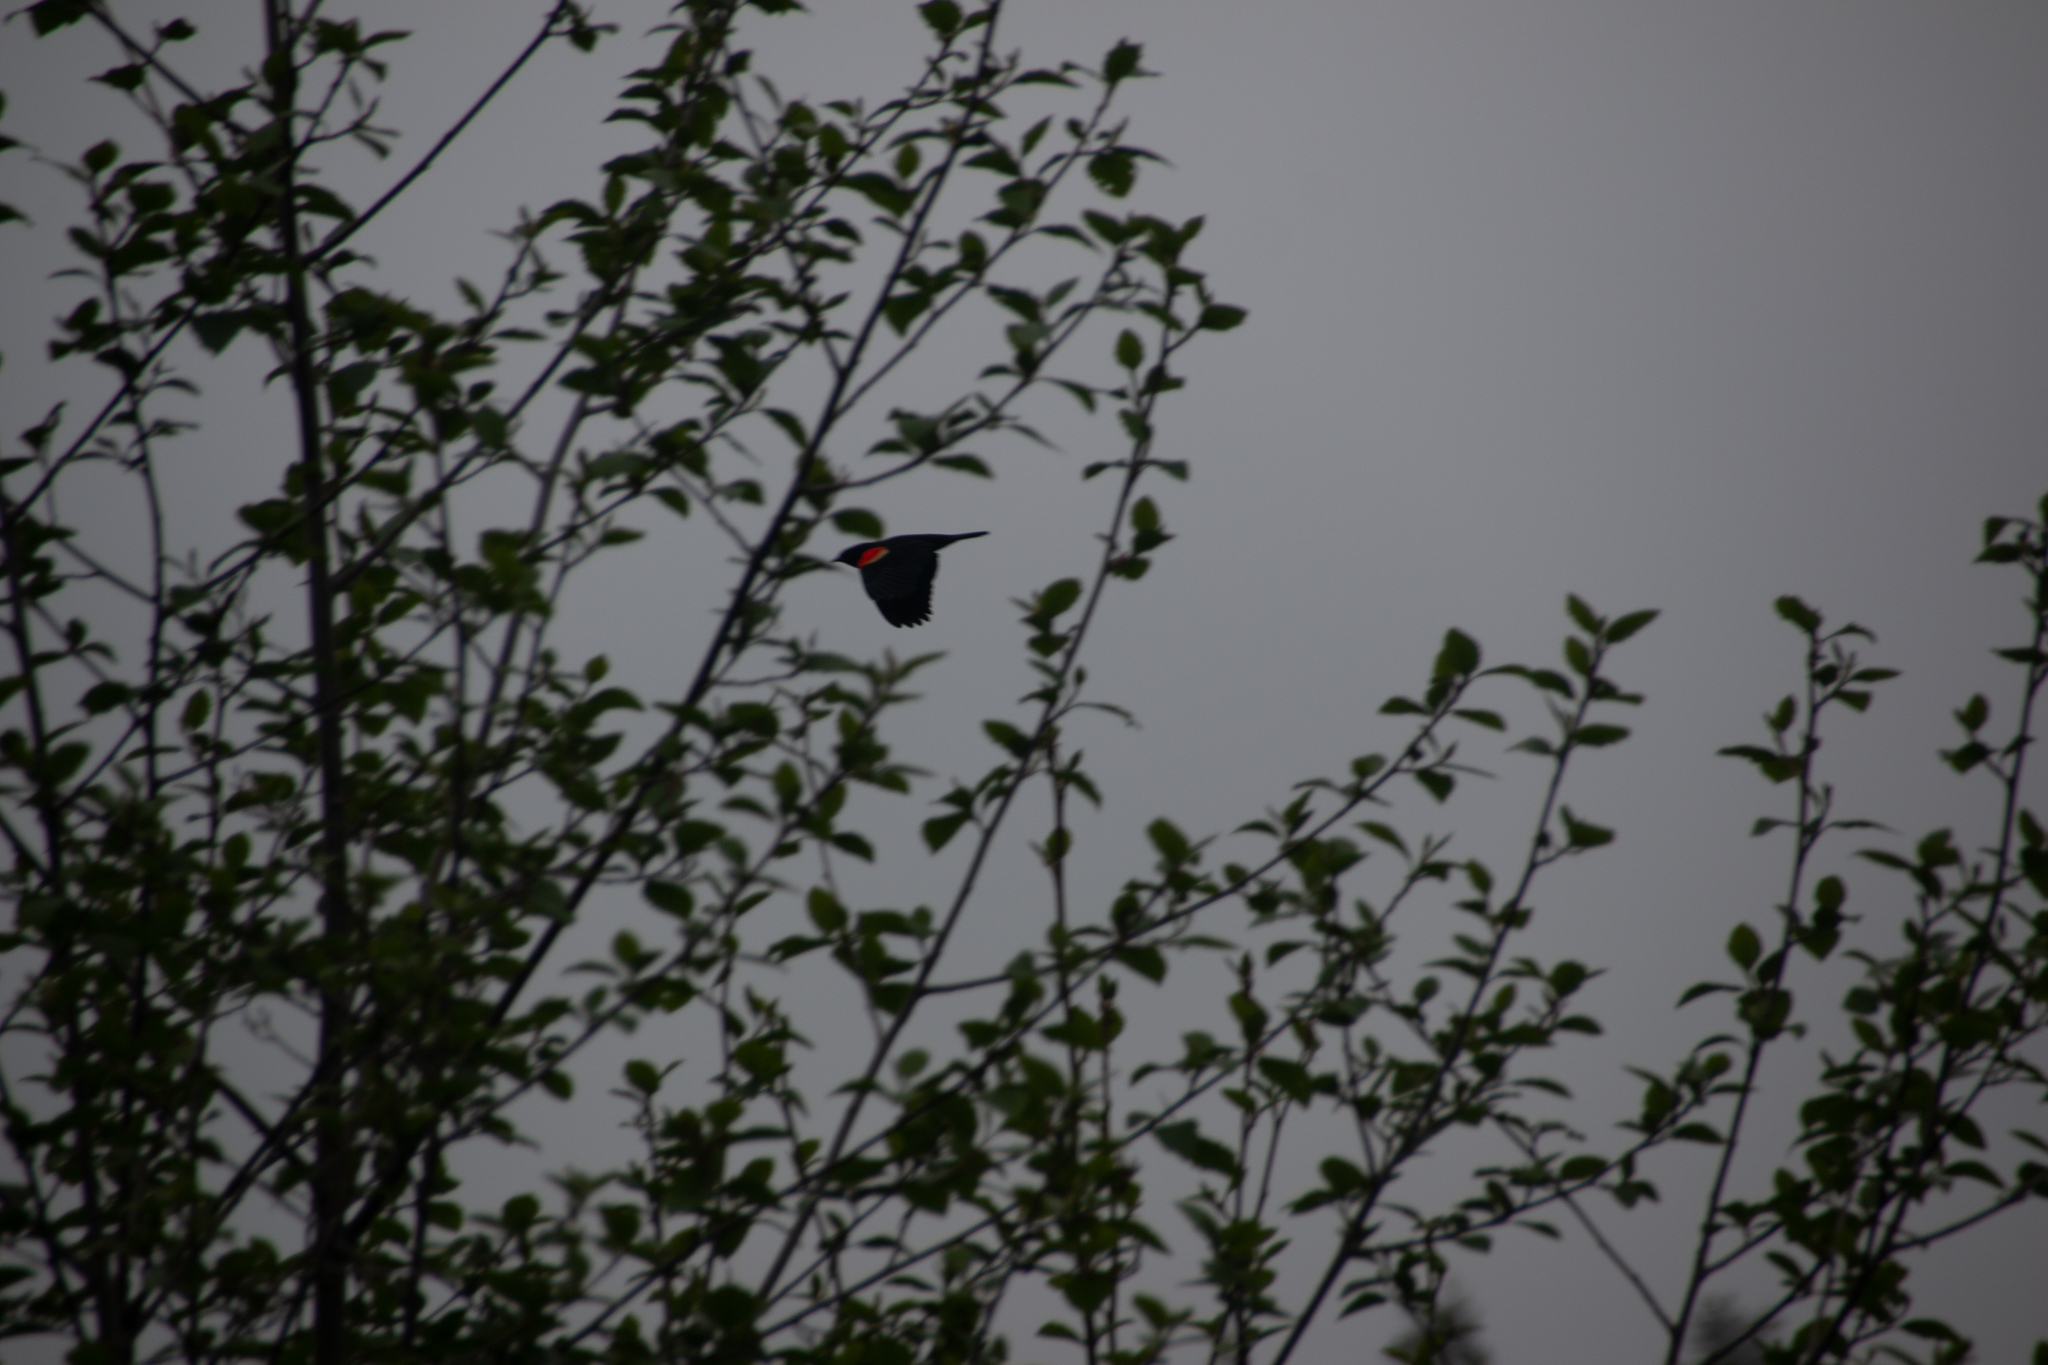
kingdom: Animalia
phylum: Chordata
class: Aves
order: Passeriformes
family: Icteridae
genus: Agelaius
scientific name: Agelaius phoeniceus
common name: Red-winged blackbird
